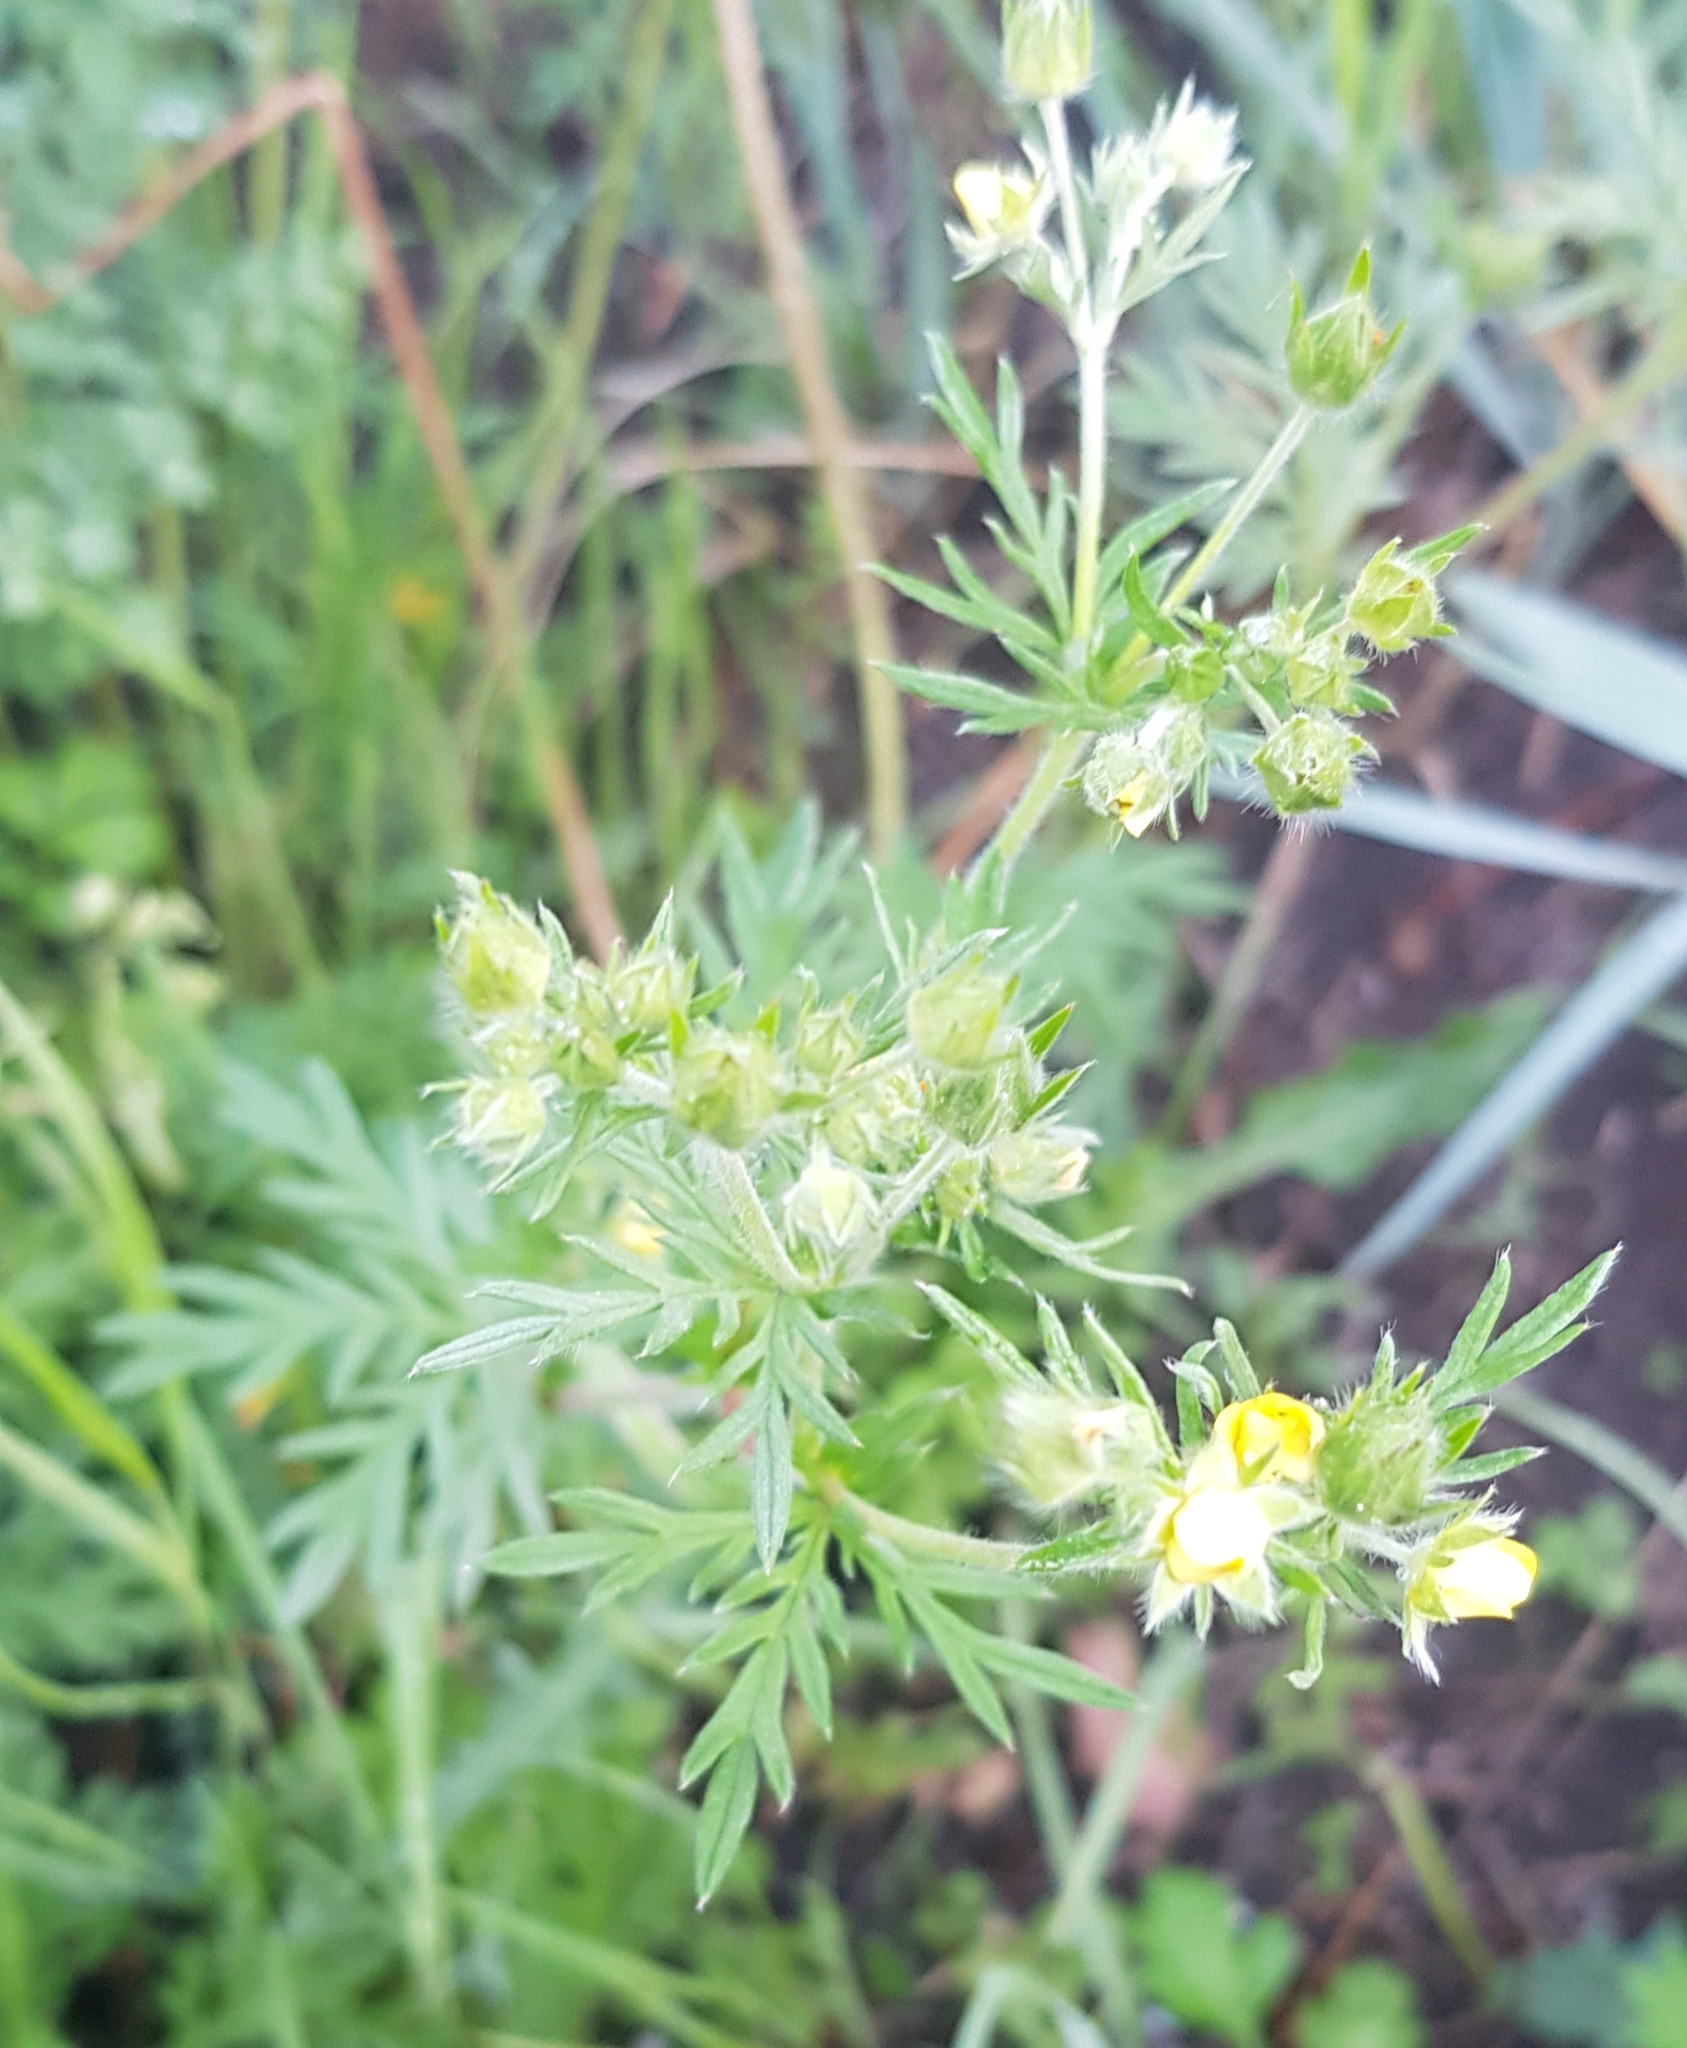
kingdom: Plantae
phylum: Tracheophyta
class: Magnoliopsida
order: Rosales
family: Rosaceae
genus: Potentilla
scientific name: Potentilla supina
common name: Prostrate cinquefoil
